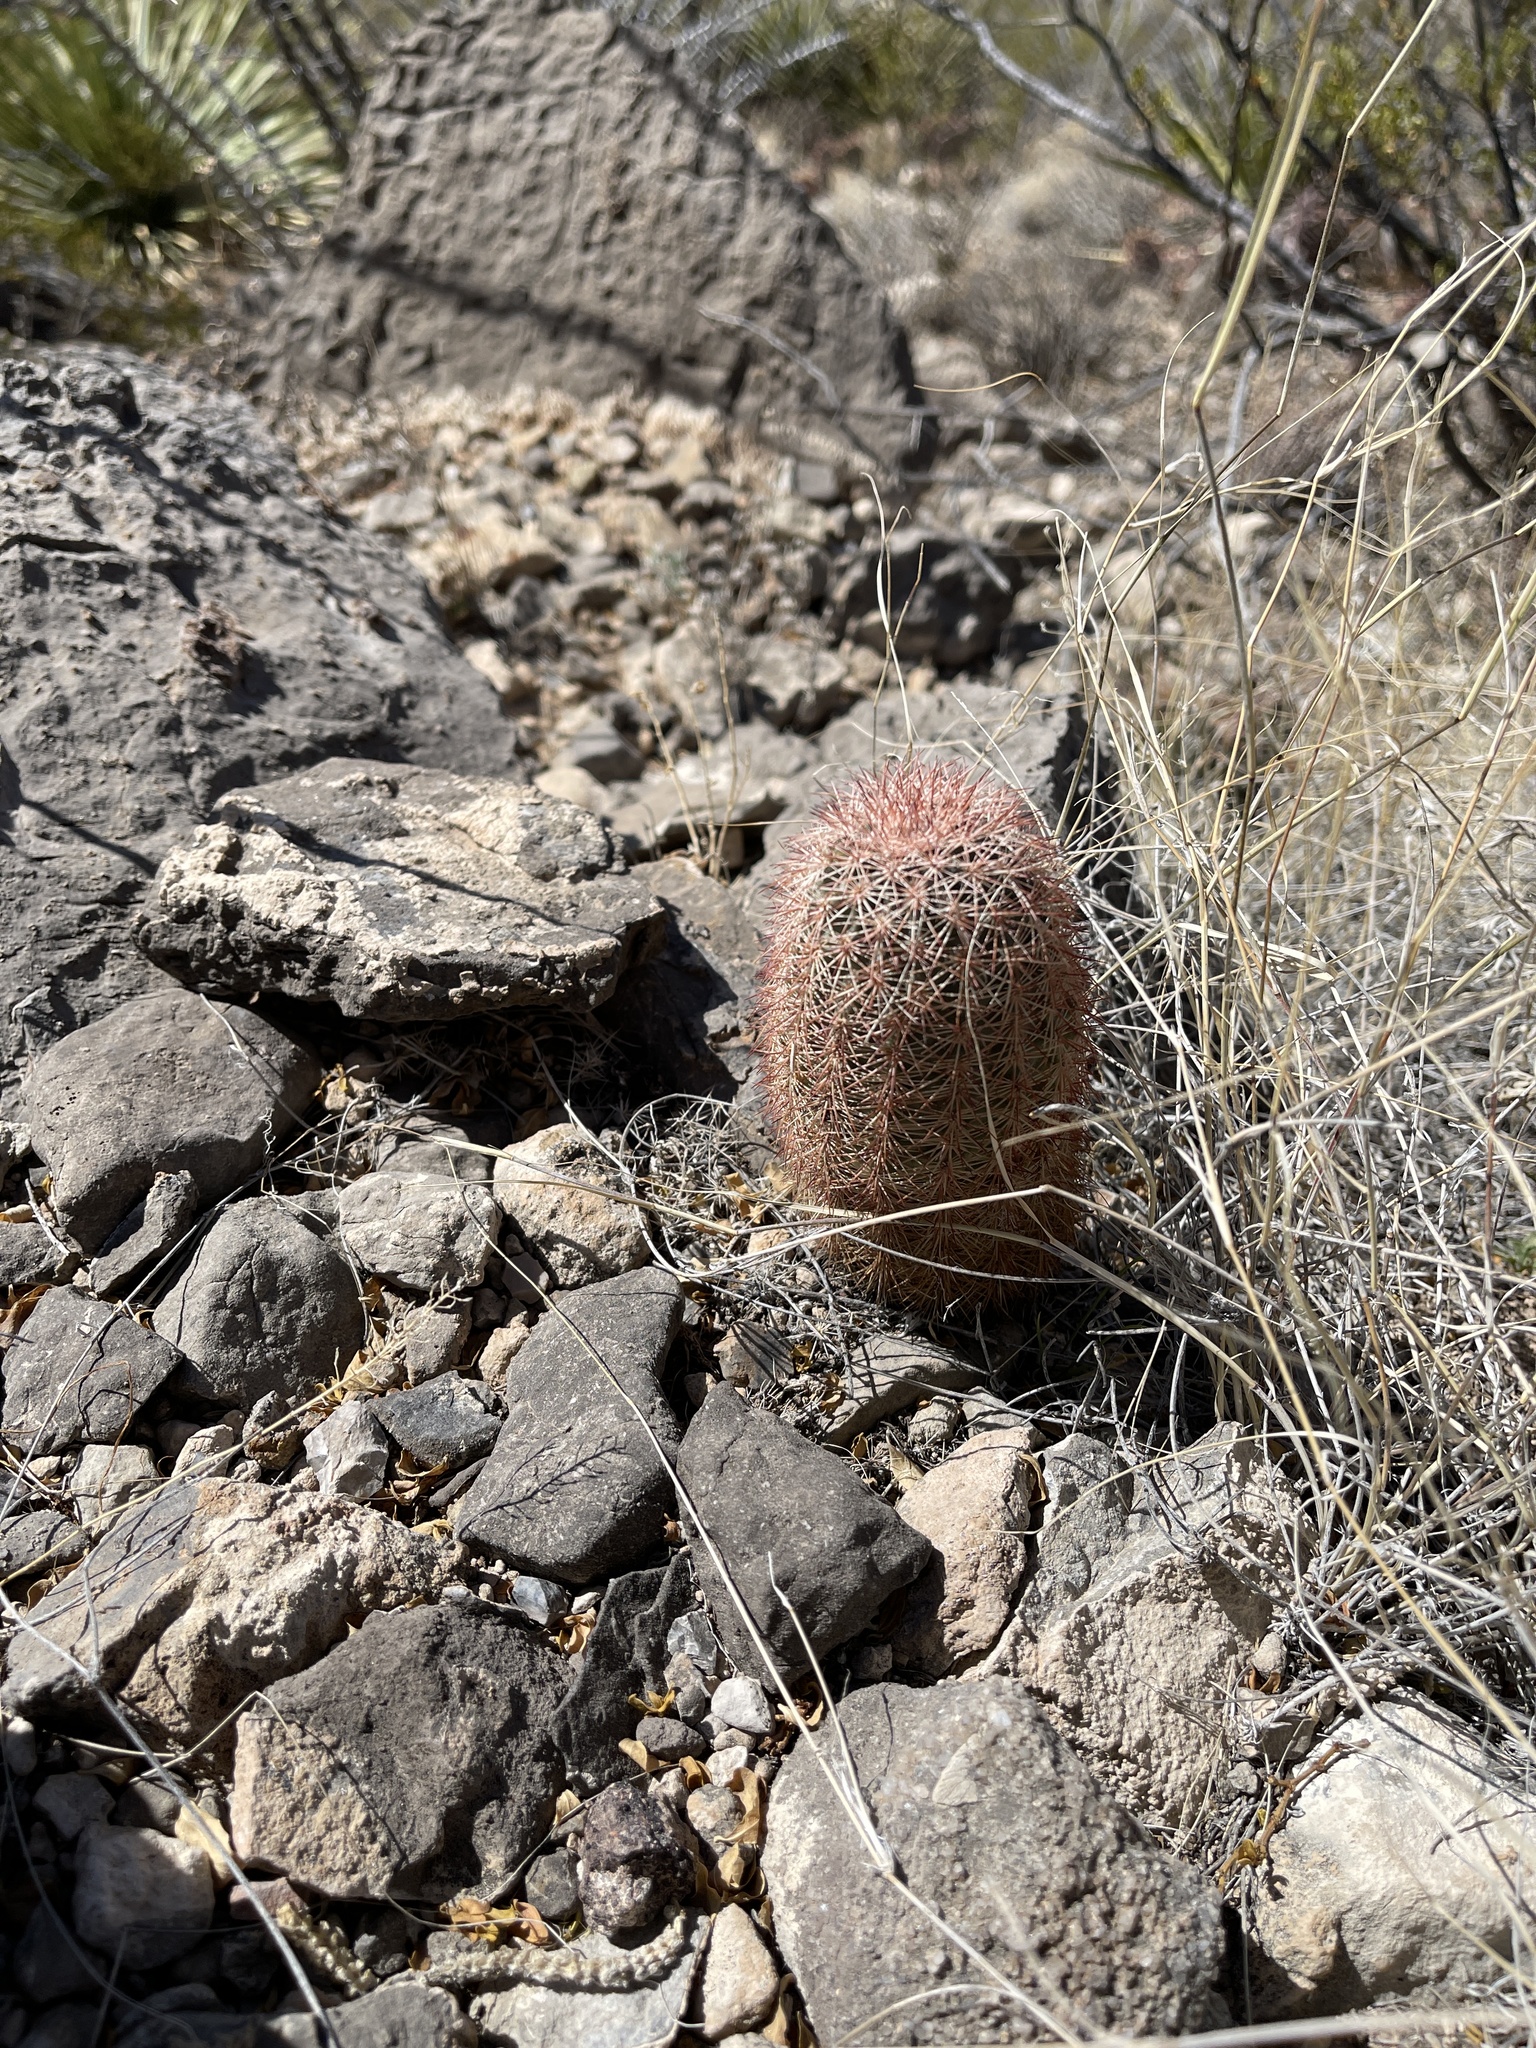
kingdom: Plantae
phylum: Tracheophyta
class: Magnoliopsida
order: Caryophyllales
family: Cactaceae
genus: Echinocereus
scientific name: Echinocereus dasyacanthus
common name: Spiny hedgehog cactus
